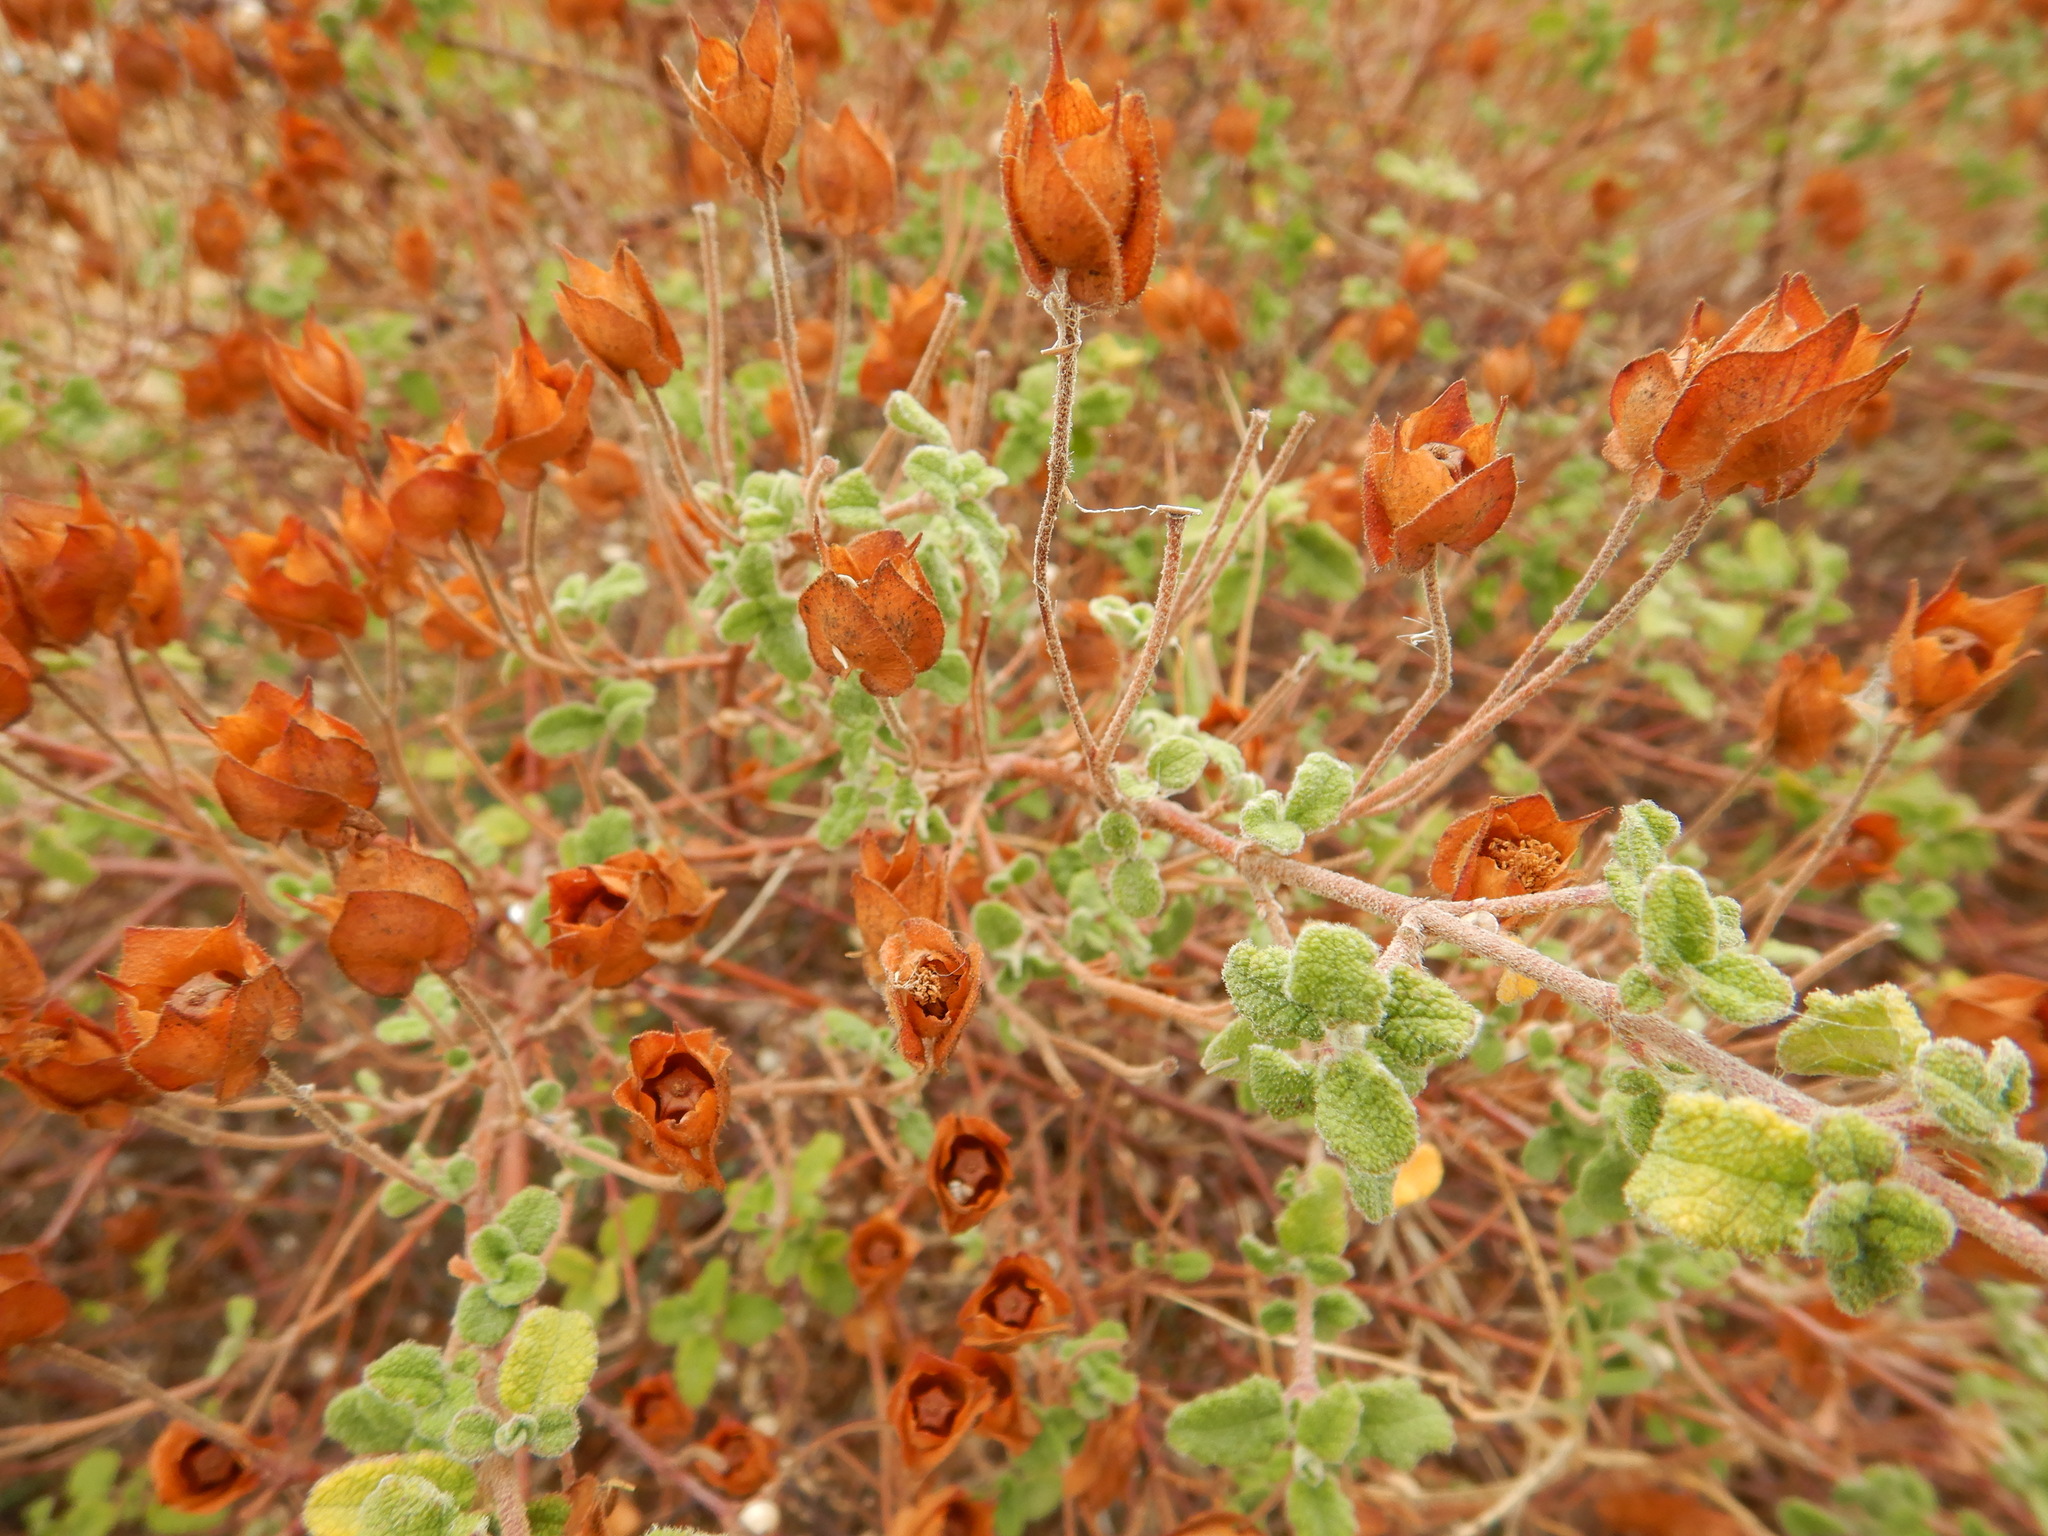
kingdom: Plantae
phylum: Tracheophyta
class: Magnoliopsida
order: Malvales
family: Cistaceae
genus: Cistus
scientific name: Cistus salviifolius
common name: Salvia cistus
